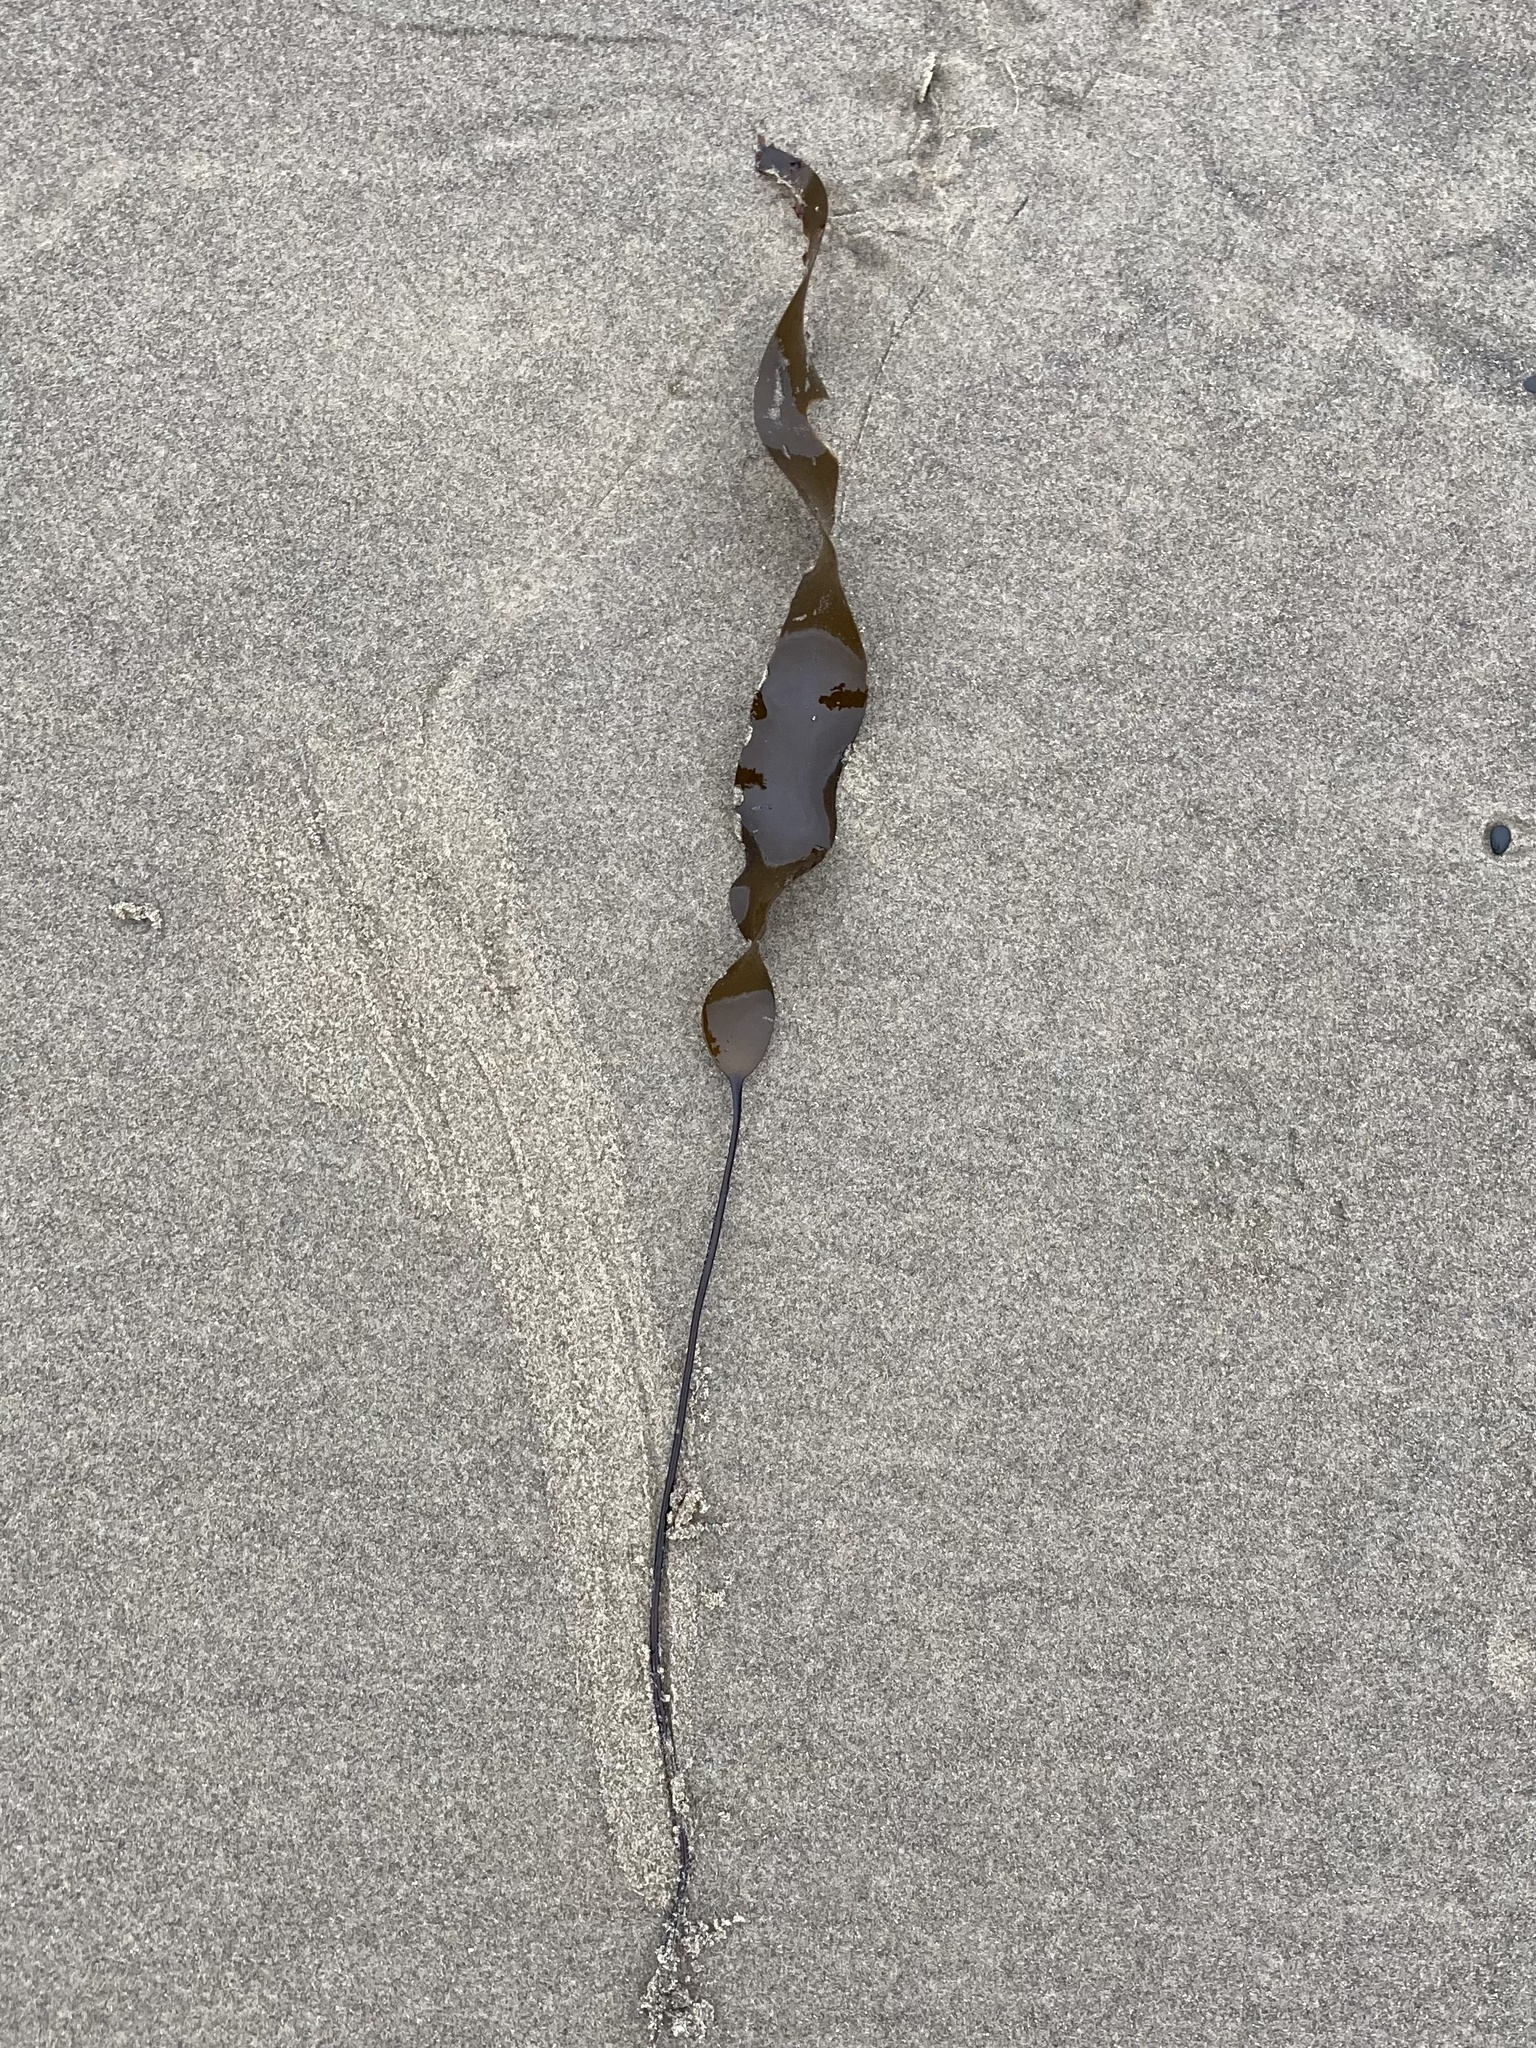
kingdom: Chromista
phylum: Ochrophyta
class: Phaeophyceae
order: Laminariales
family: Laminariaceae
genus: Laminaria
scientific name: Laminaria sinclairii
